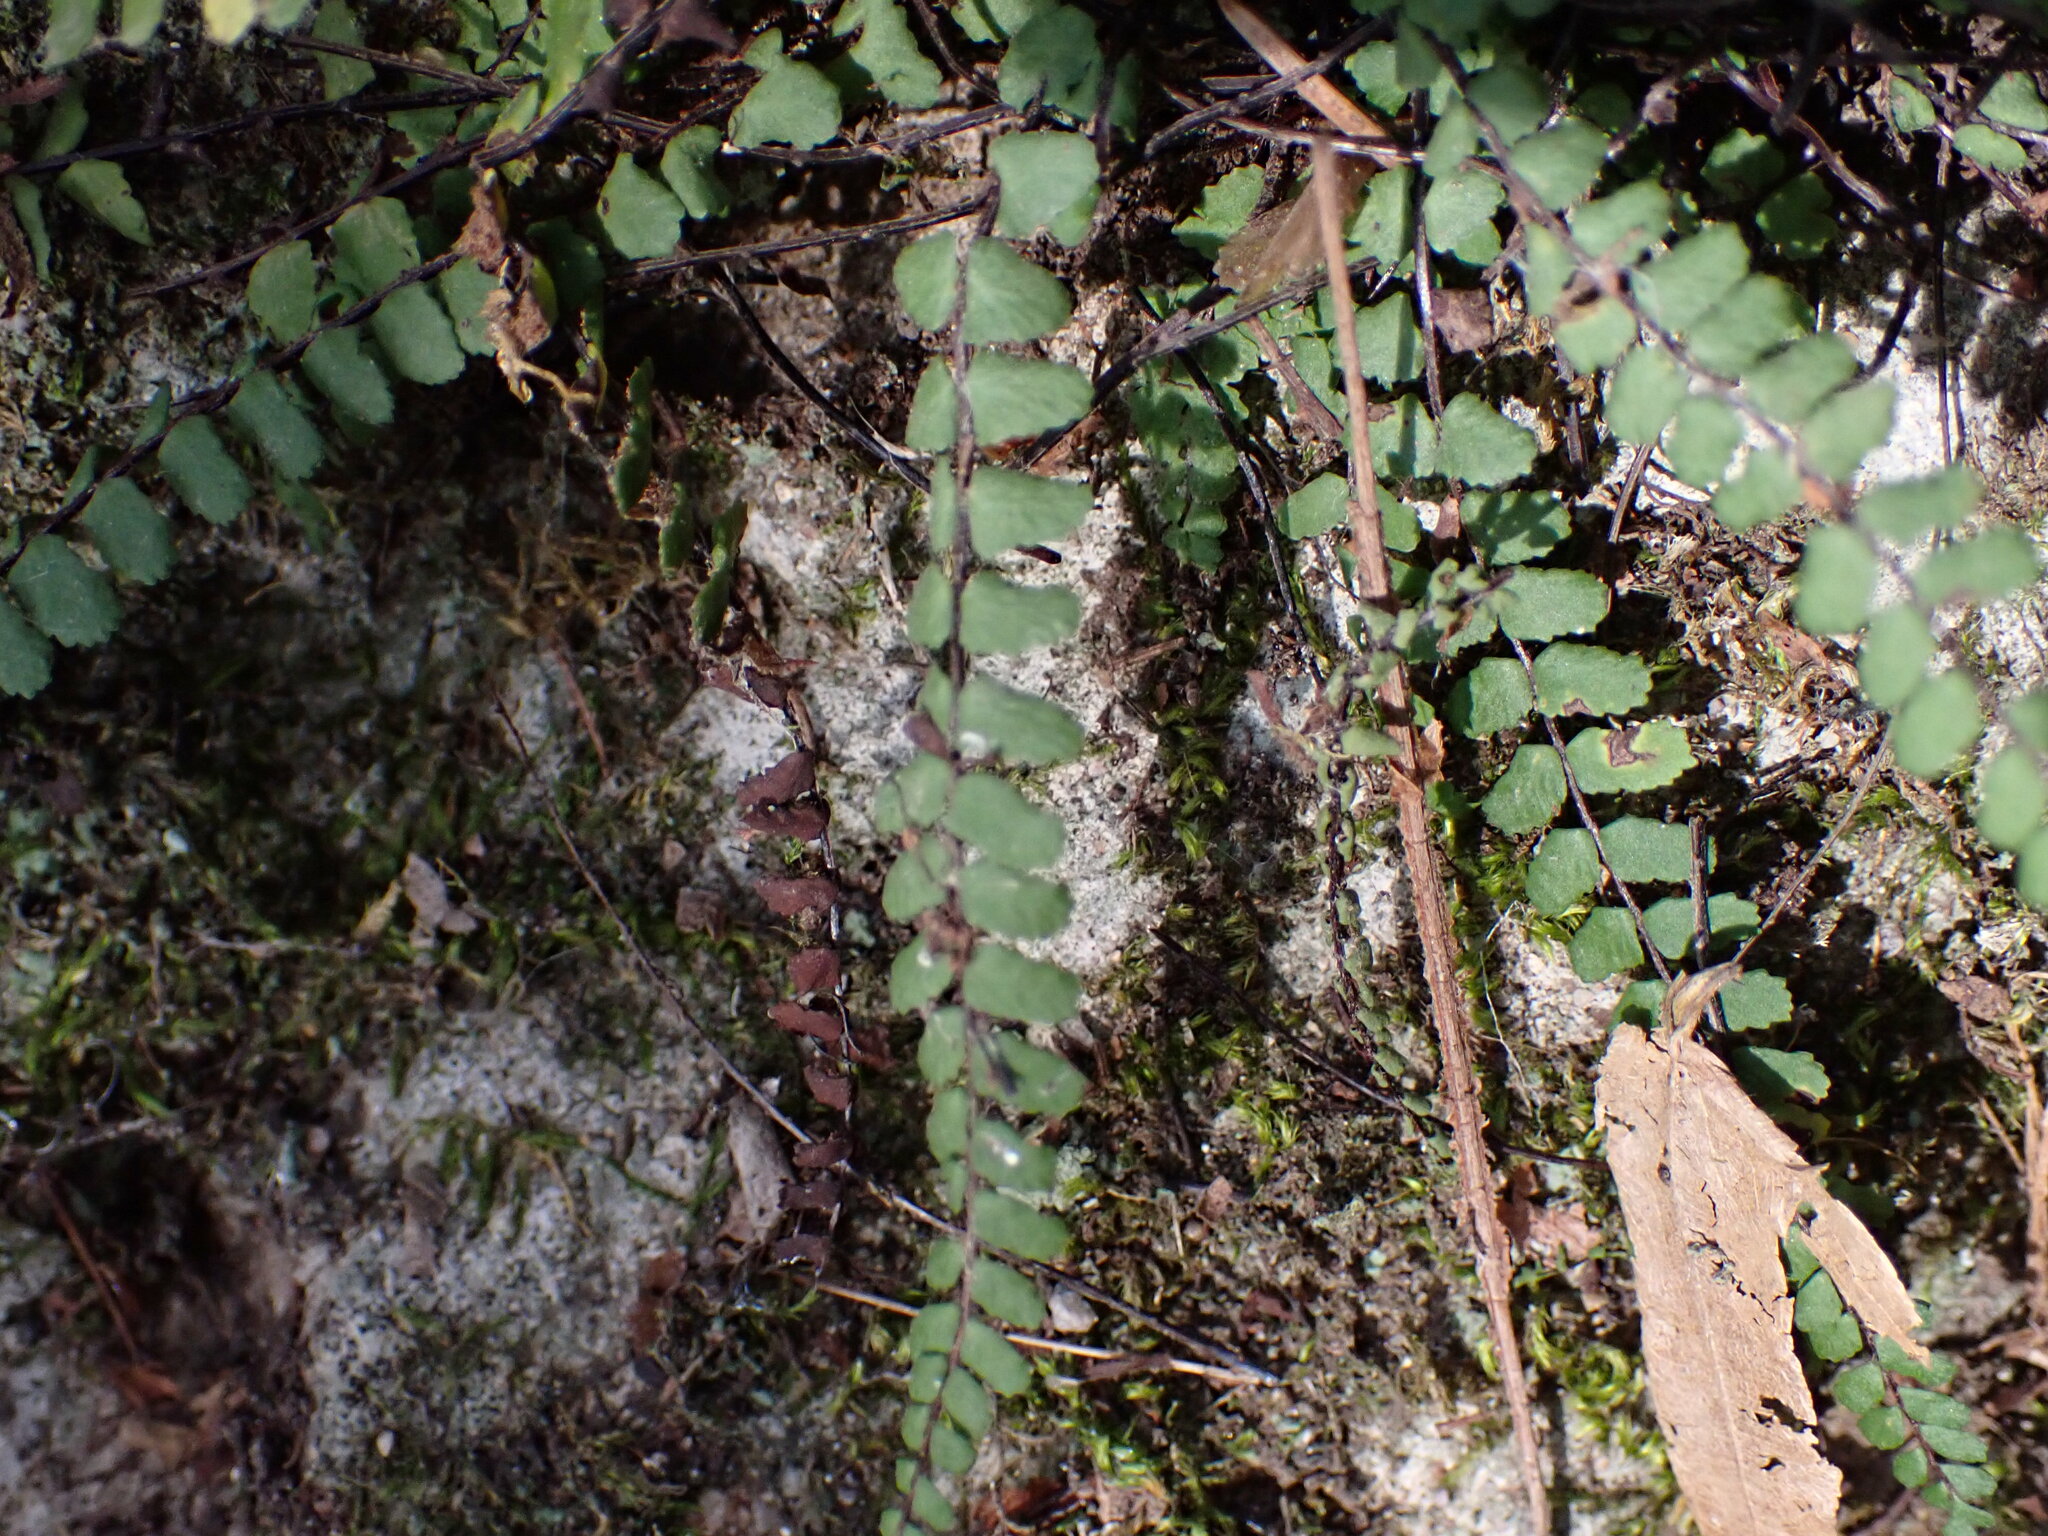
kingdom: Plantae
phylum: Tracheophyta
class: Polypodiopsida
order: Polypodiales
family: Aspleniaceae
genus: Asplenium
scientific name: Asplenium trichomanes
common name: Maidenhair spleenwort
